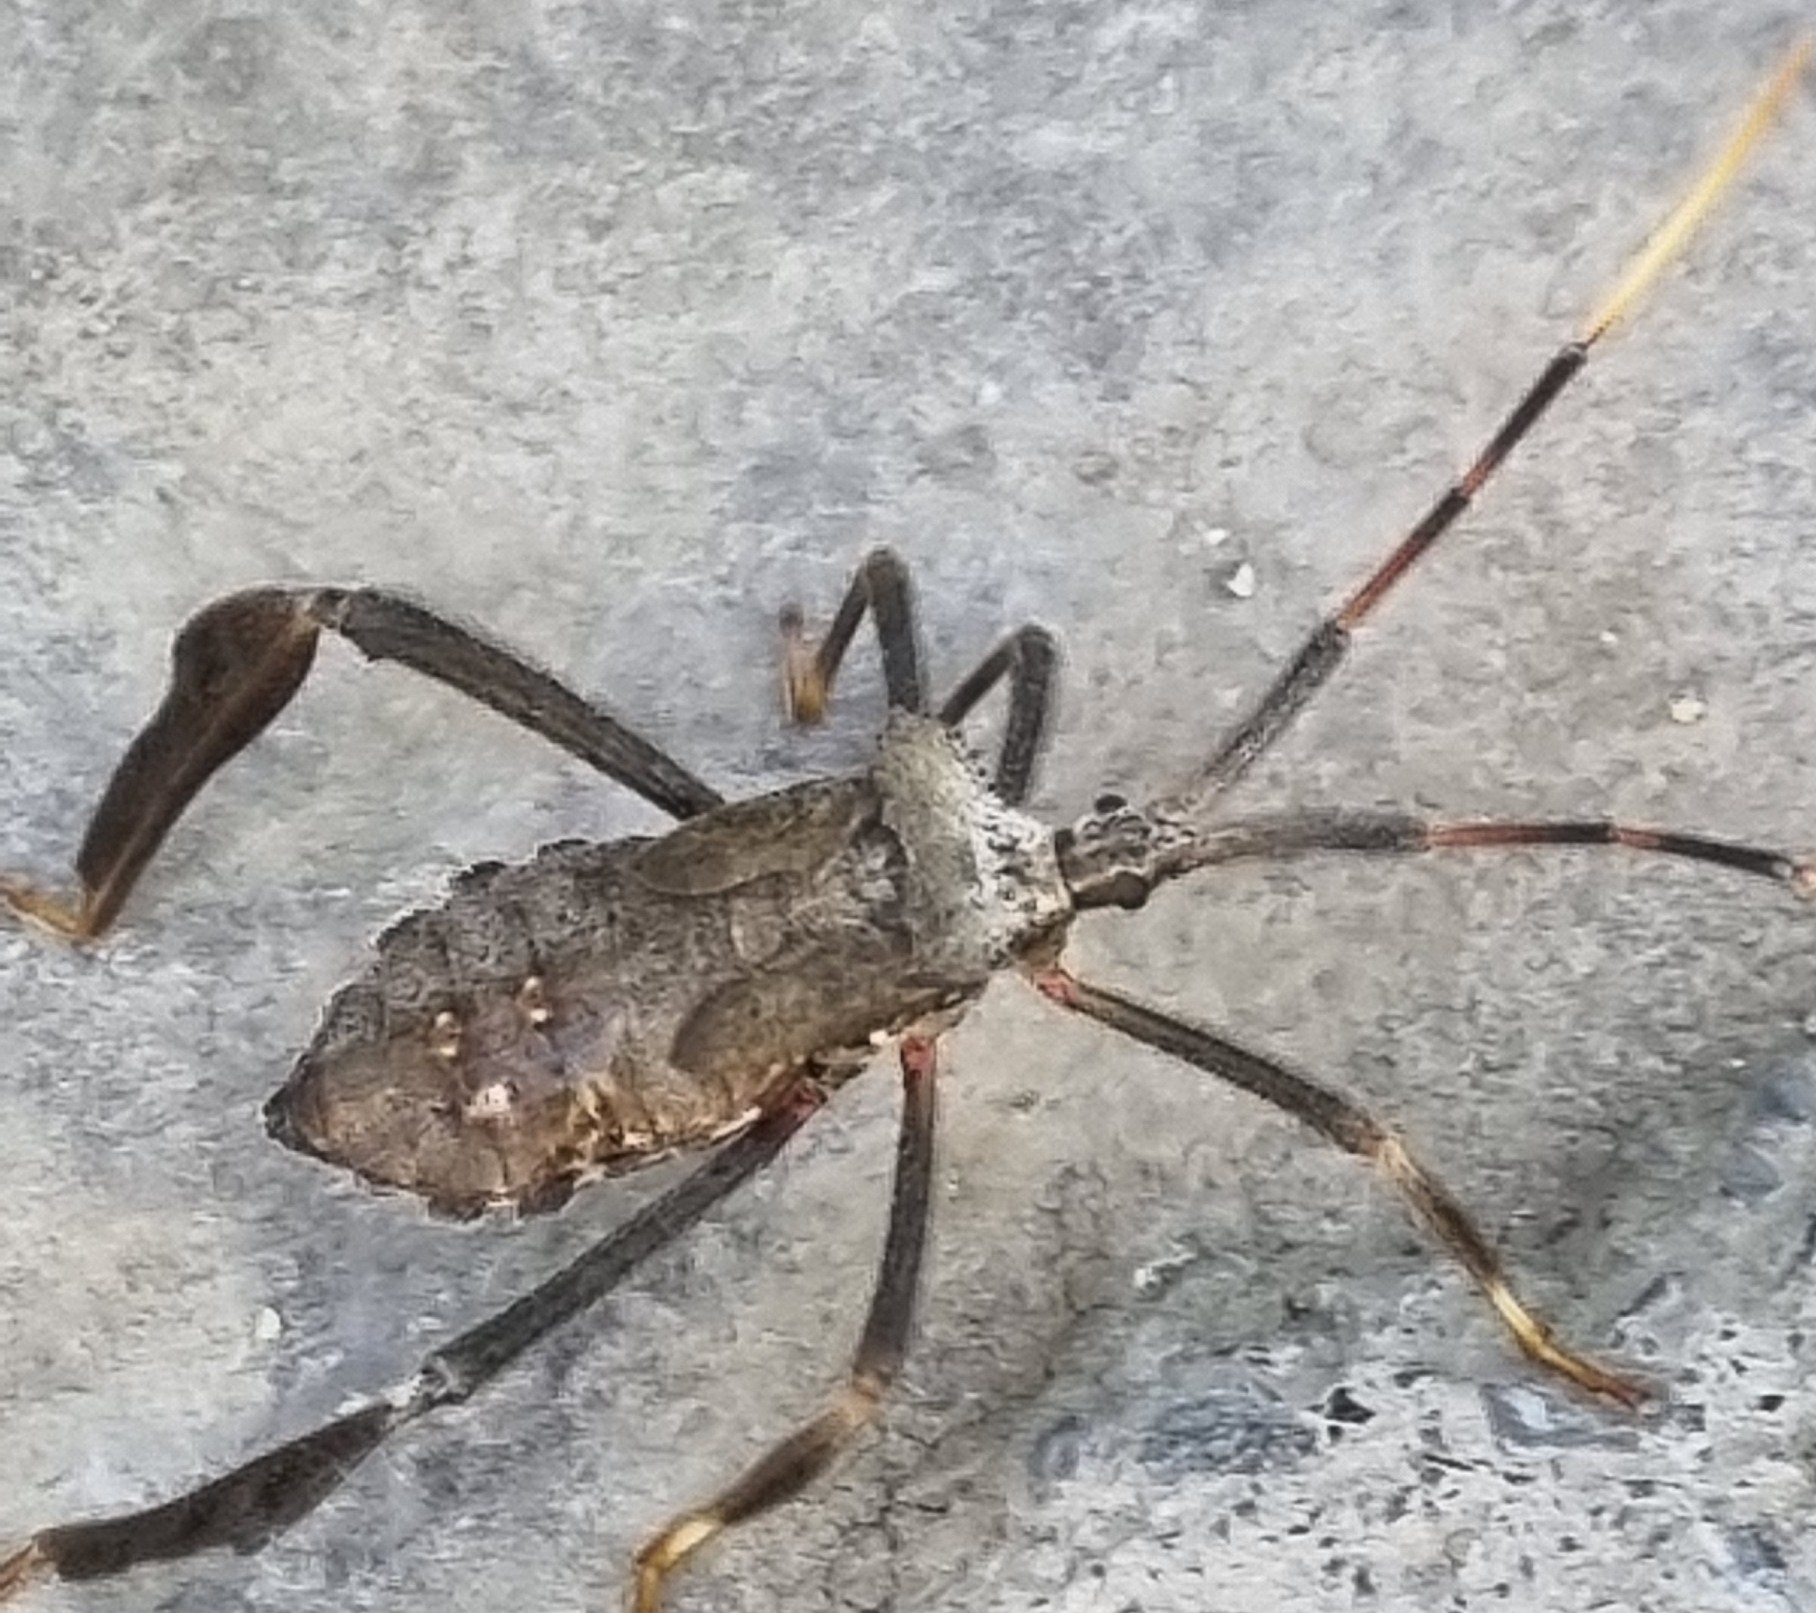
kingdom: Animalia
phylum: Arthropoda
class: Insecta
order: Hemiptera
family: Coreidae
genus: Acanthocephala
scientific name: Acanthocephala alata
